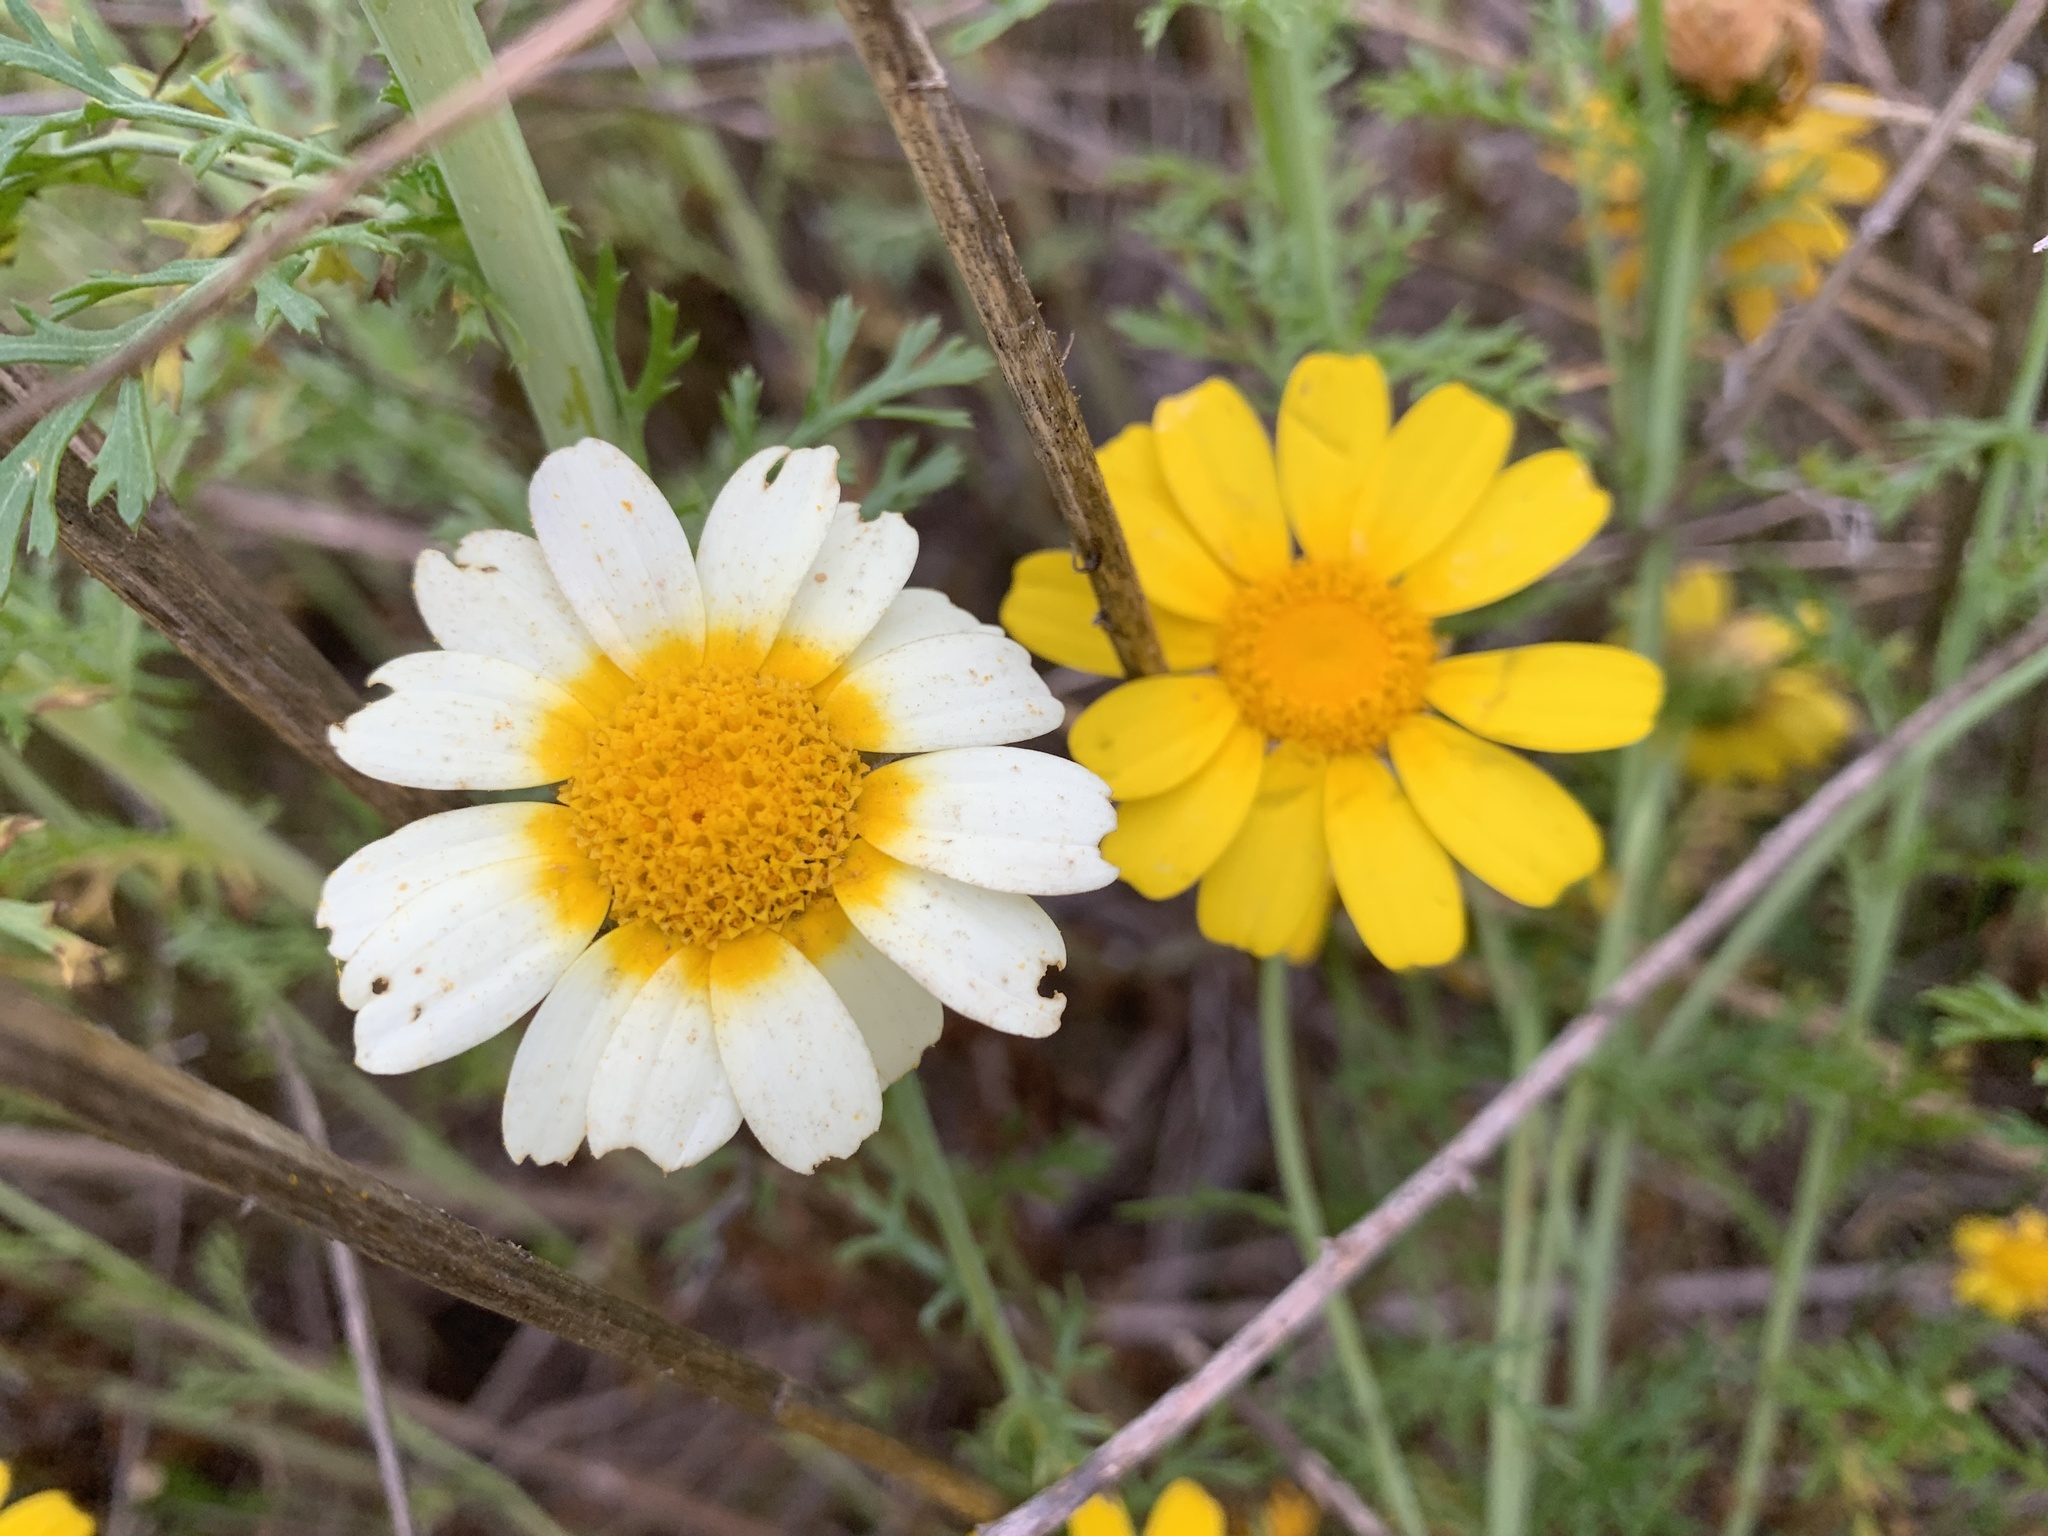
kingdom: Plantae
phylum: Tracheophyta
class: Magnoliopsida
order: Asterales
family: Asteraceae
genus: Glebionis
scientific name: Glebionis coronaria
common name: Crowndaisy
